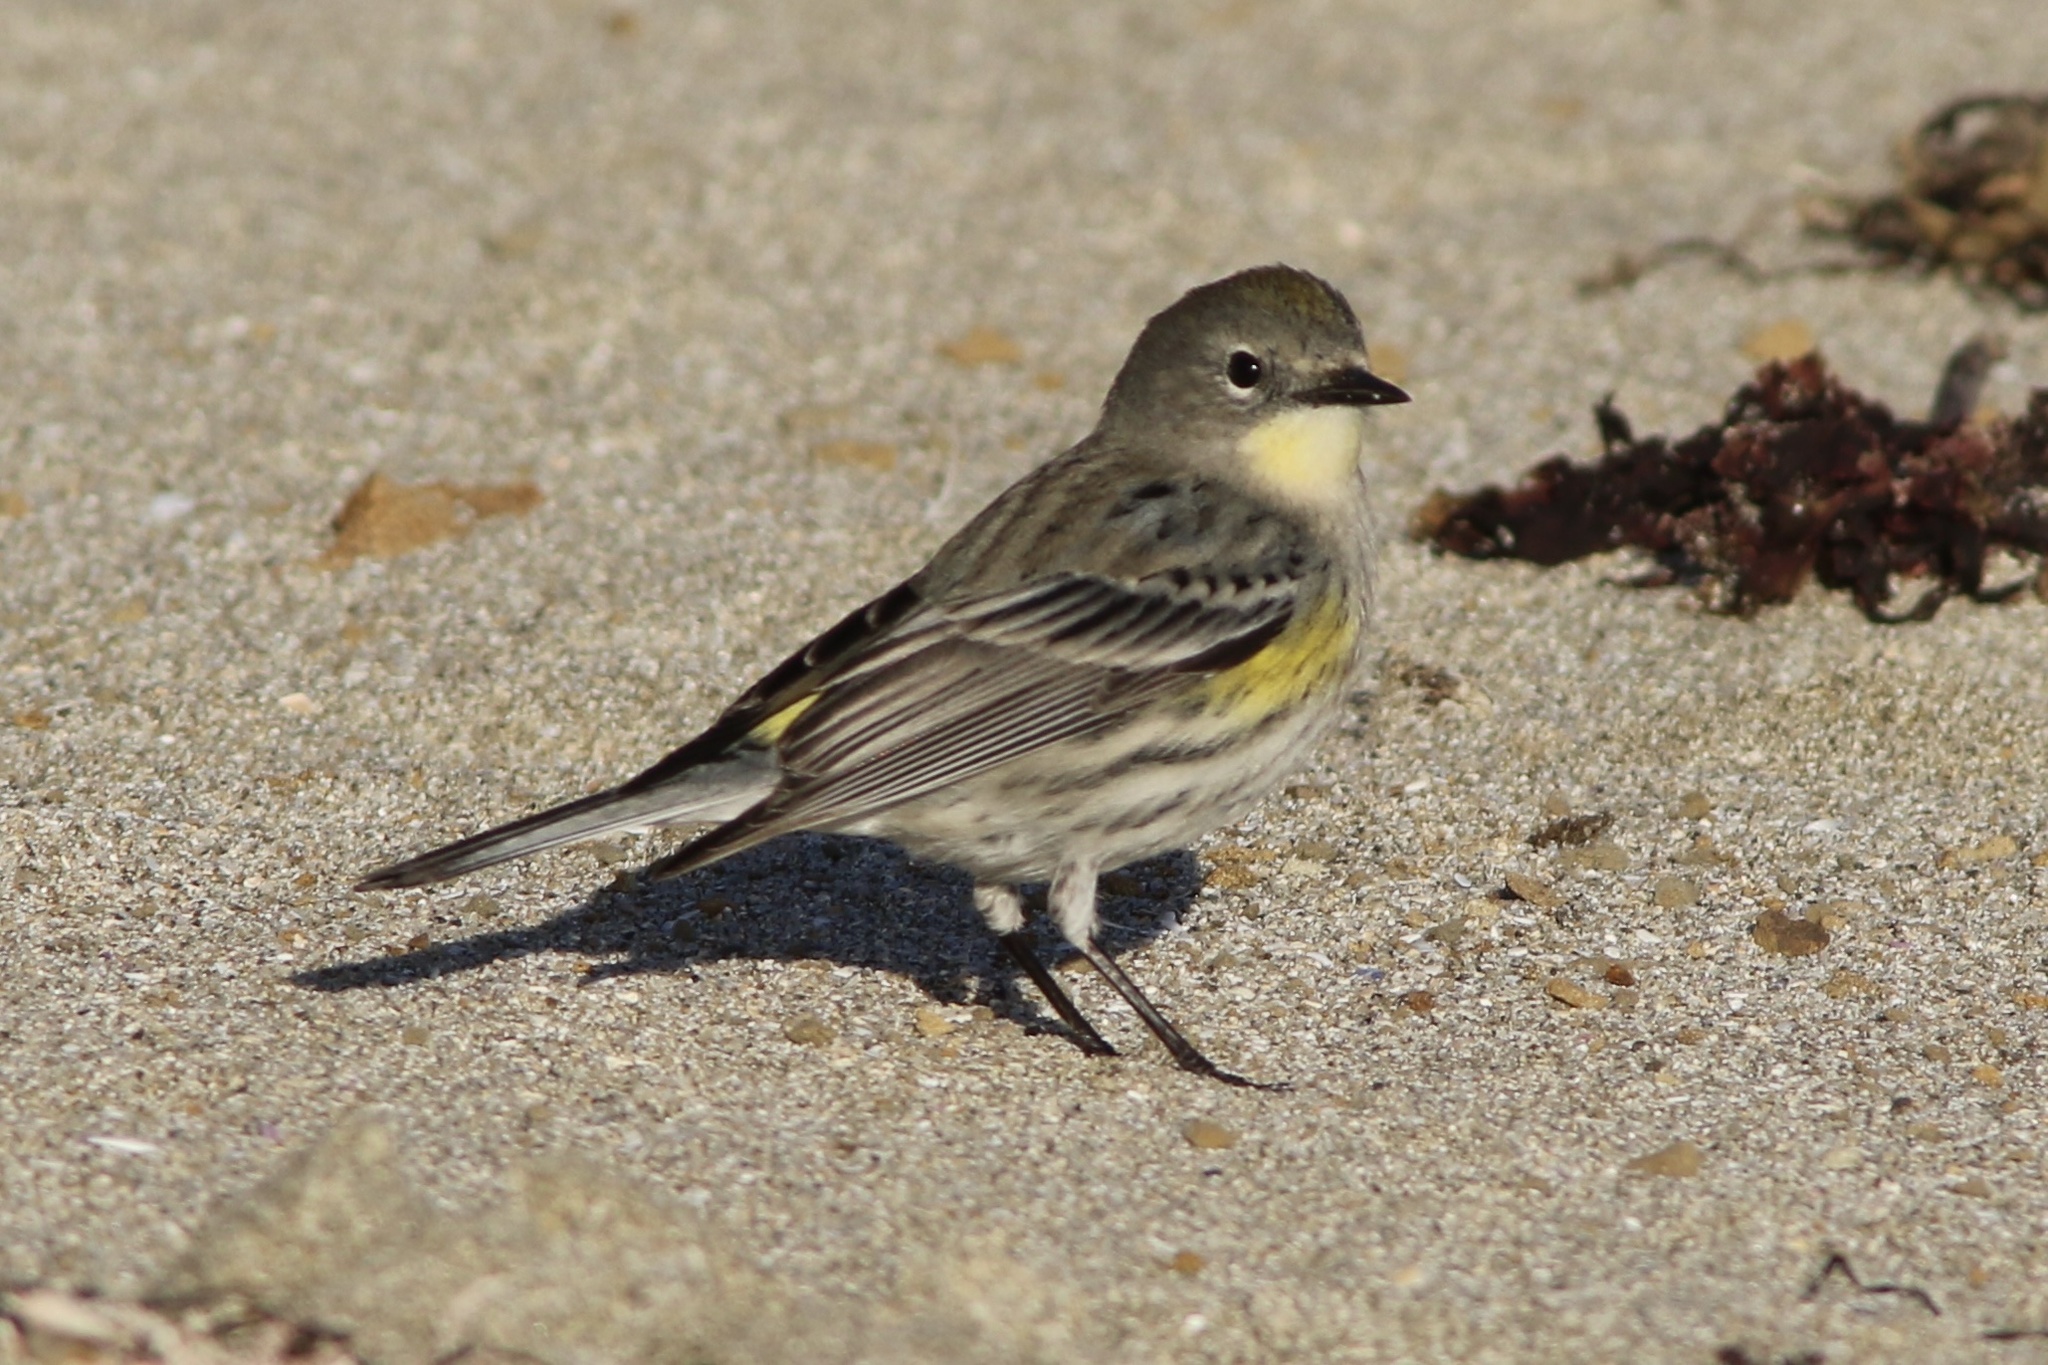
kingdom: Animalia
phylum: Chordata
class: Aves
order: Passeriformes
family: Parulidae
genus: Setophaga
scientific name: Setophaga coronata
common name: Myrtle warbler
